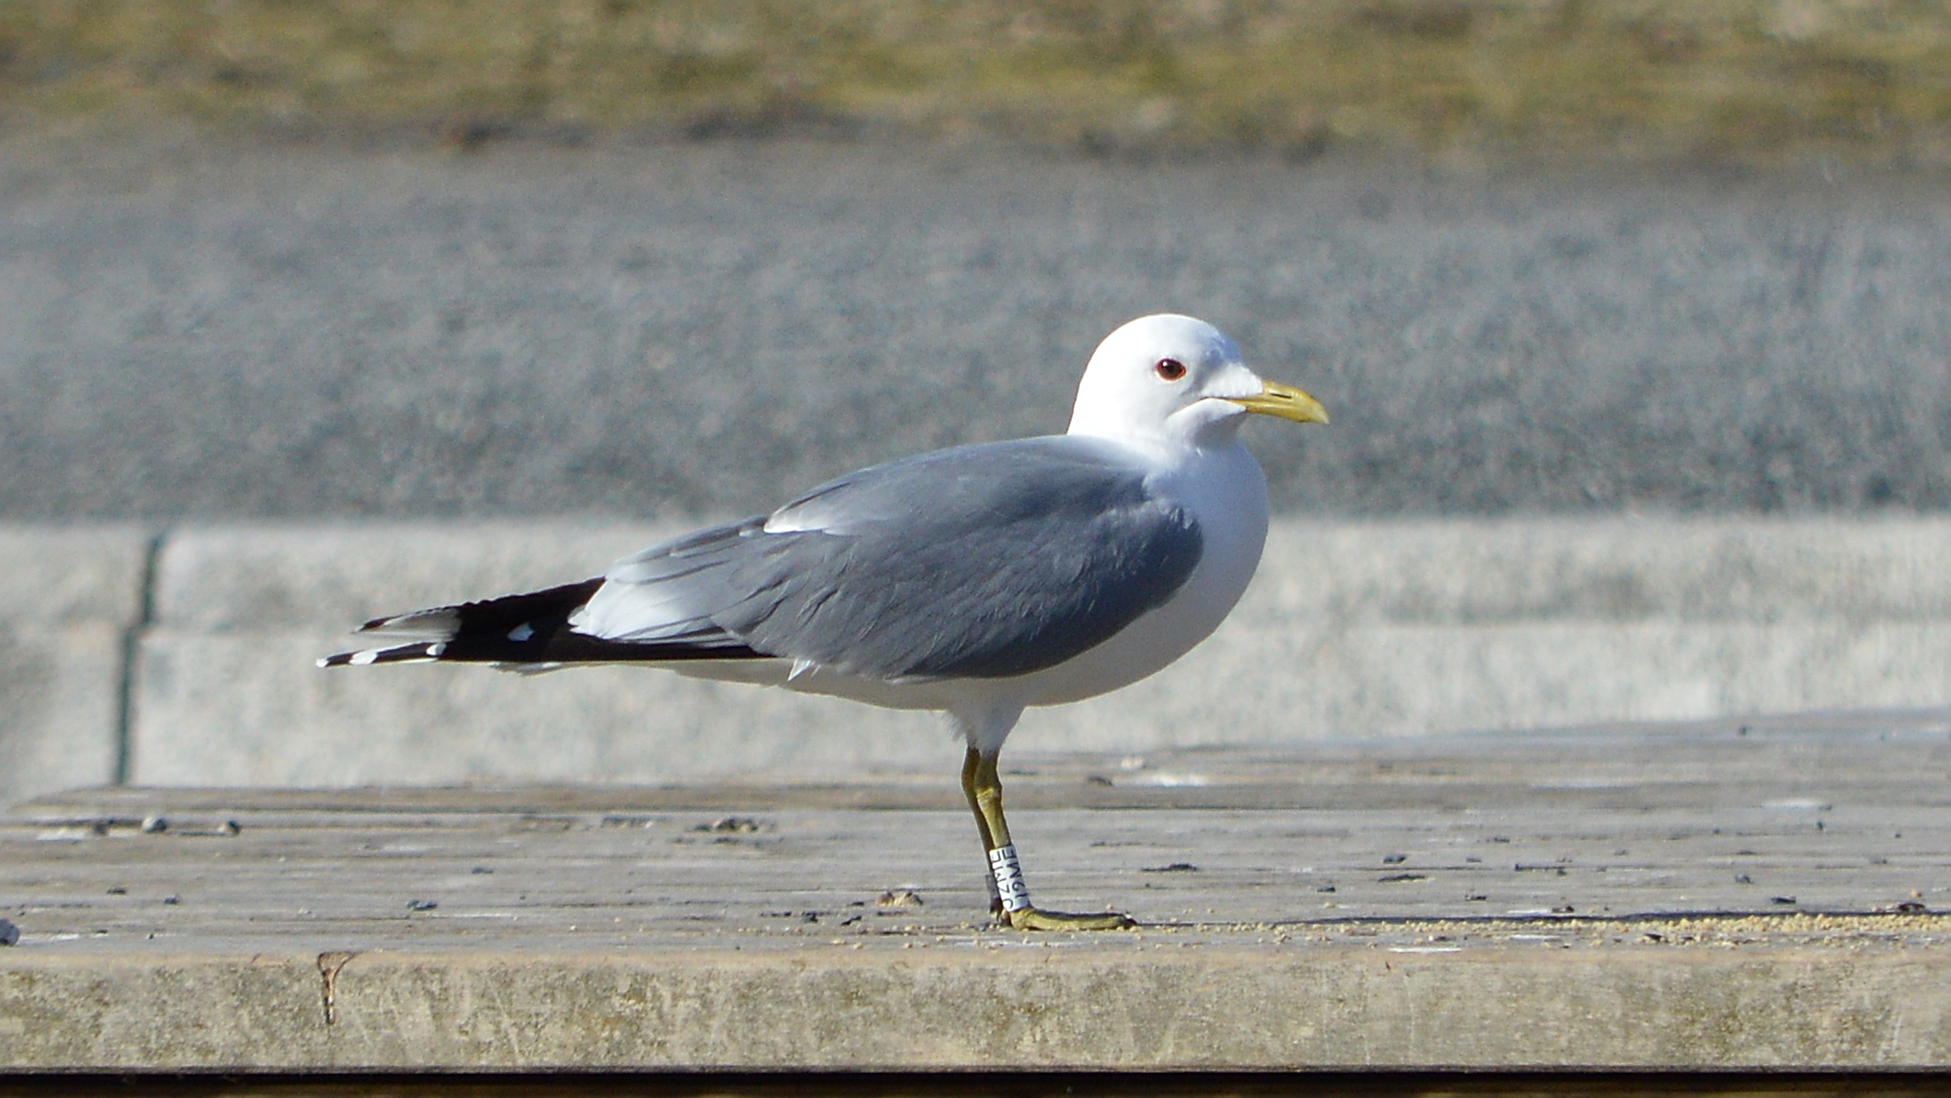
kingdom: Animalia
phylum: Chordata
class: Aves
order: Charadriiformes
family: Laridae
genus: Larus
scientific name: Larus canus
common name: Mew gull
